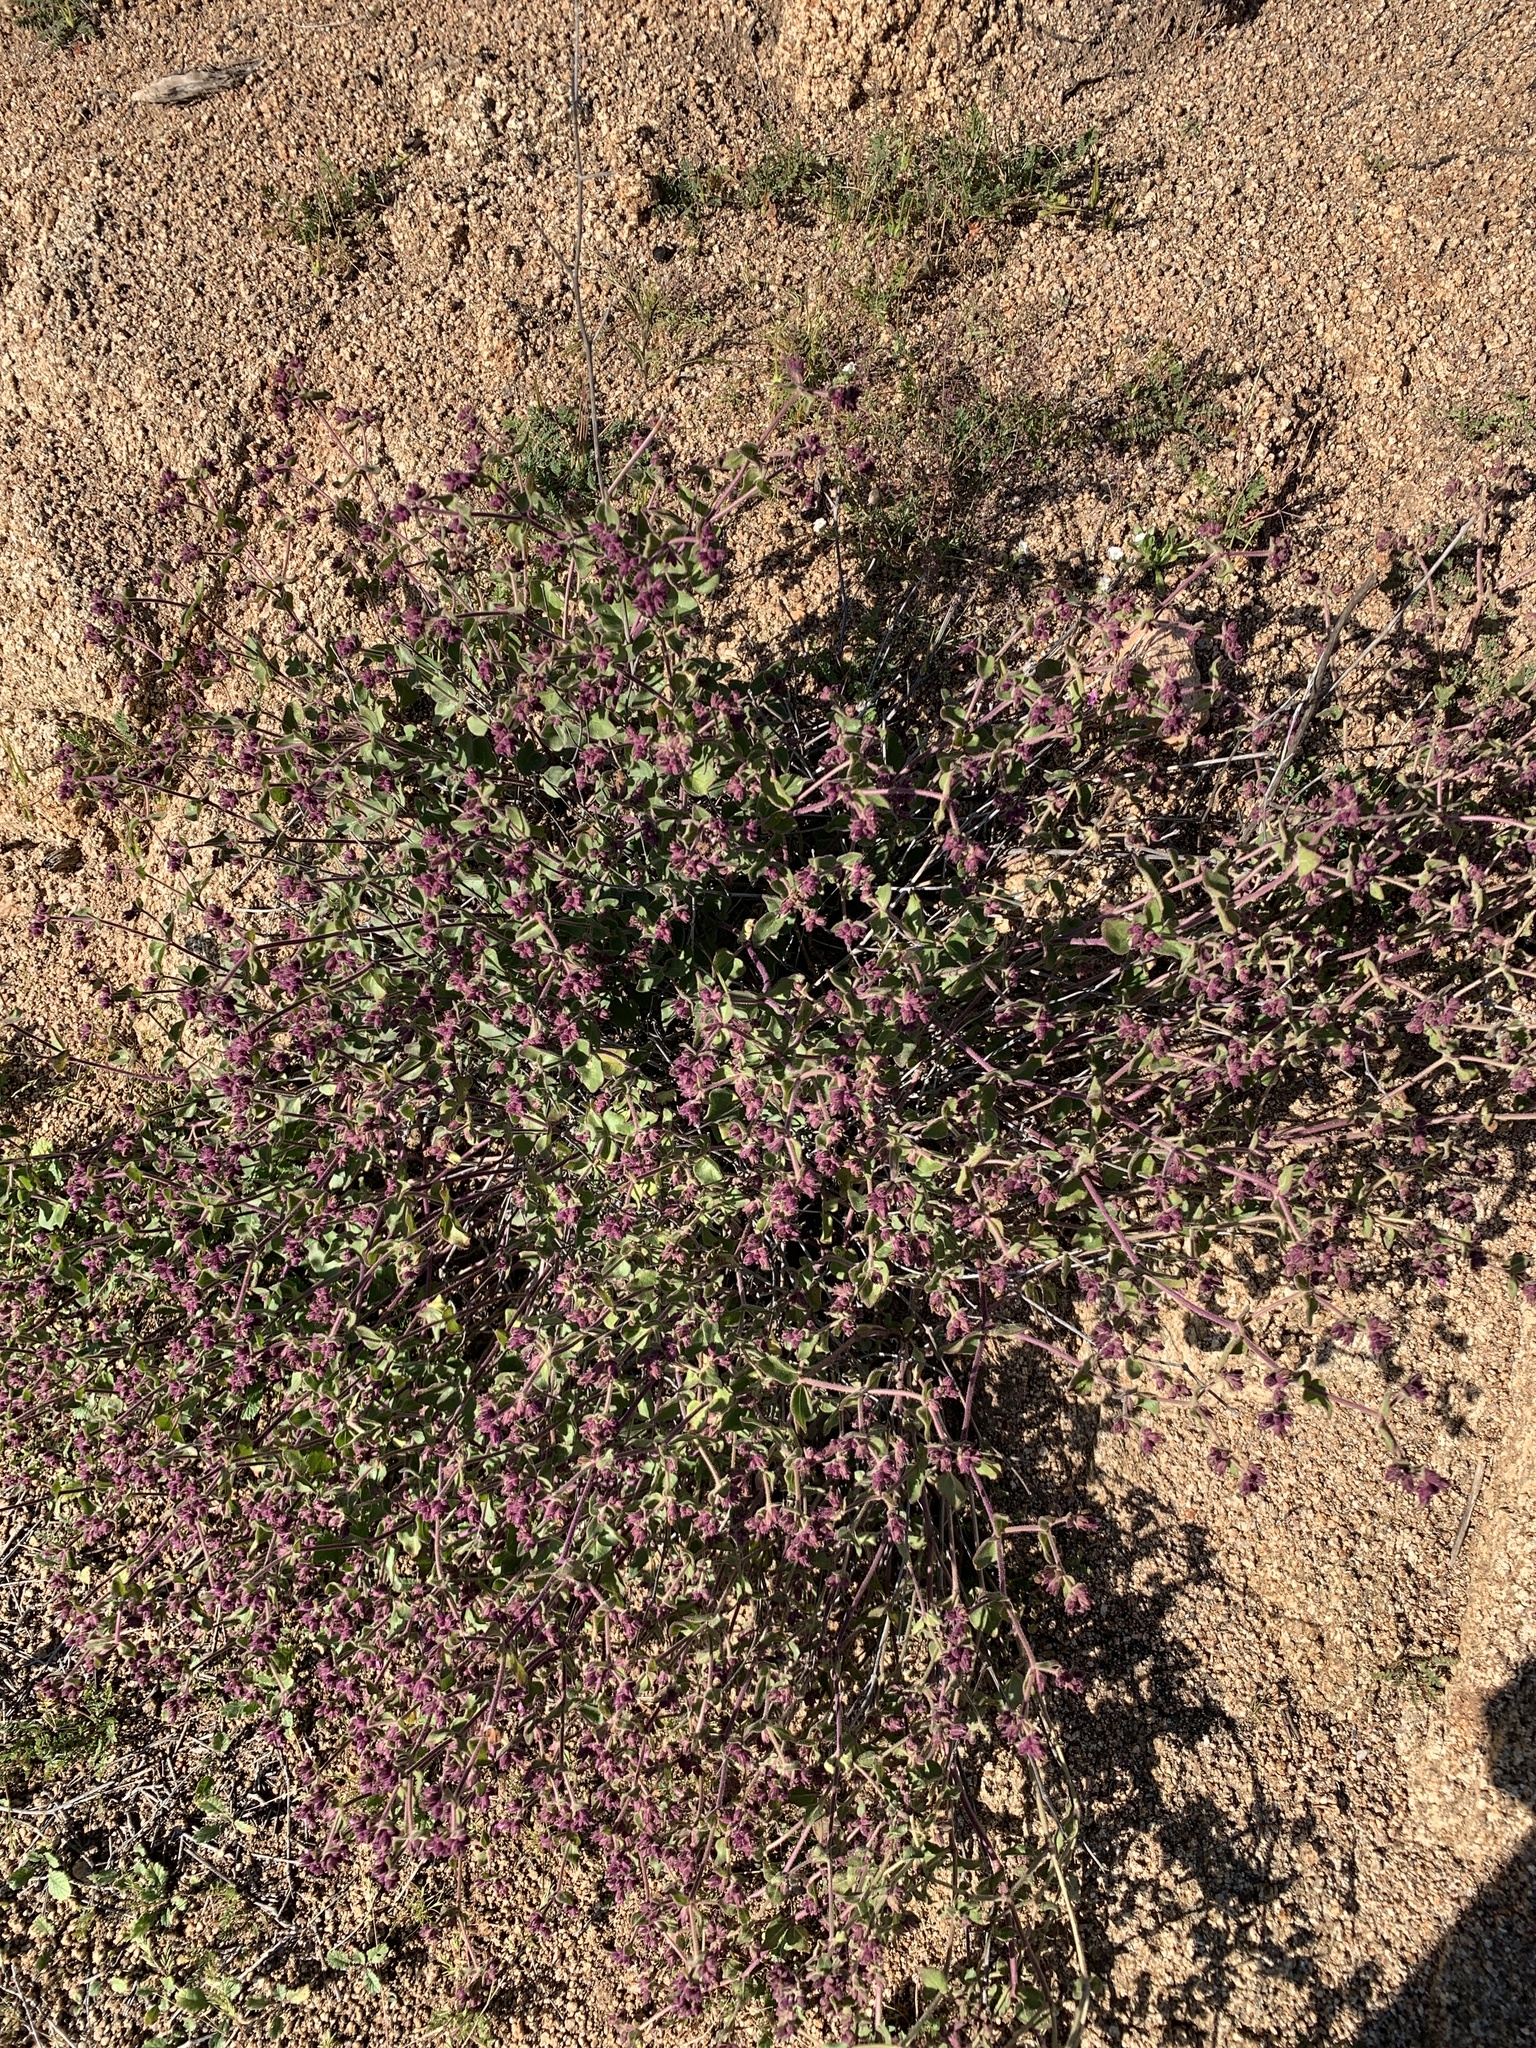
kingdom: Plantae
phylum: Tracheophyta
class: Magnoliopsida
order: Caryophyllales
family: Nyctaginaceae
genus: Mirabilis
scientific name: Mirabilis laevis
